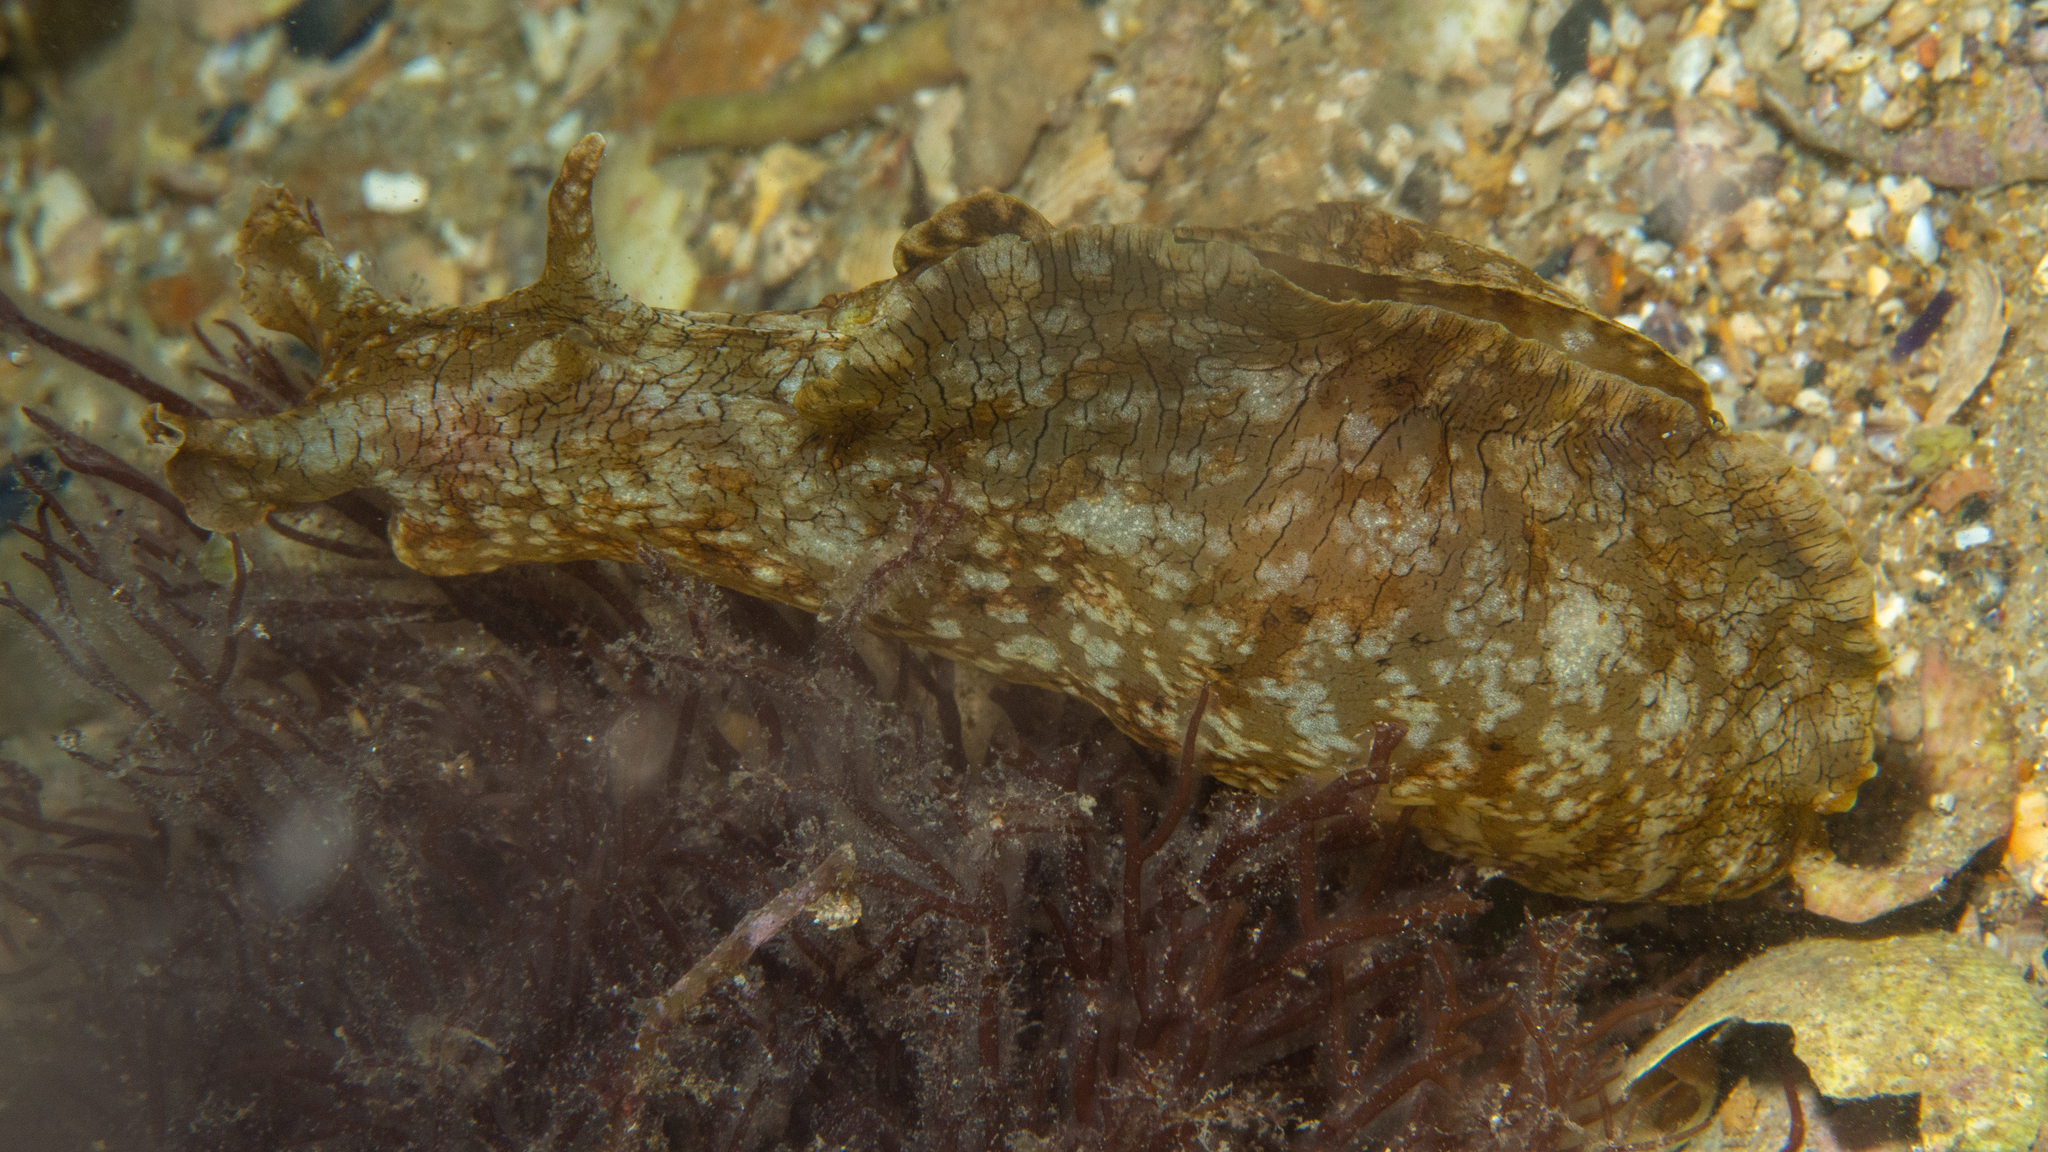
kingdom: Animalia
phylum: Mollusca
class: Gastropoda
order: Aplysiida
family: Aplysiidae
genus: Aplysia
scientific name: Aplysia sydneyensis
